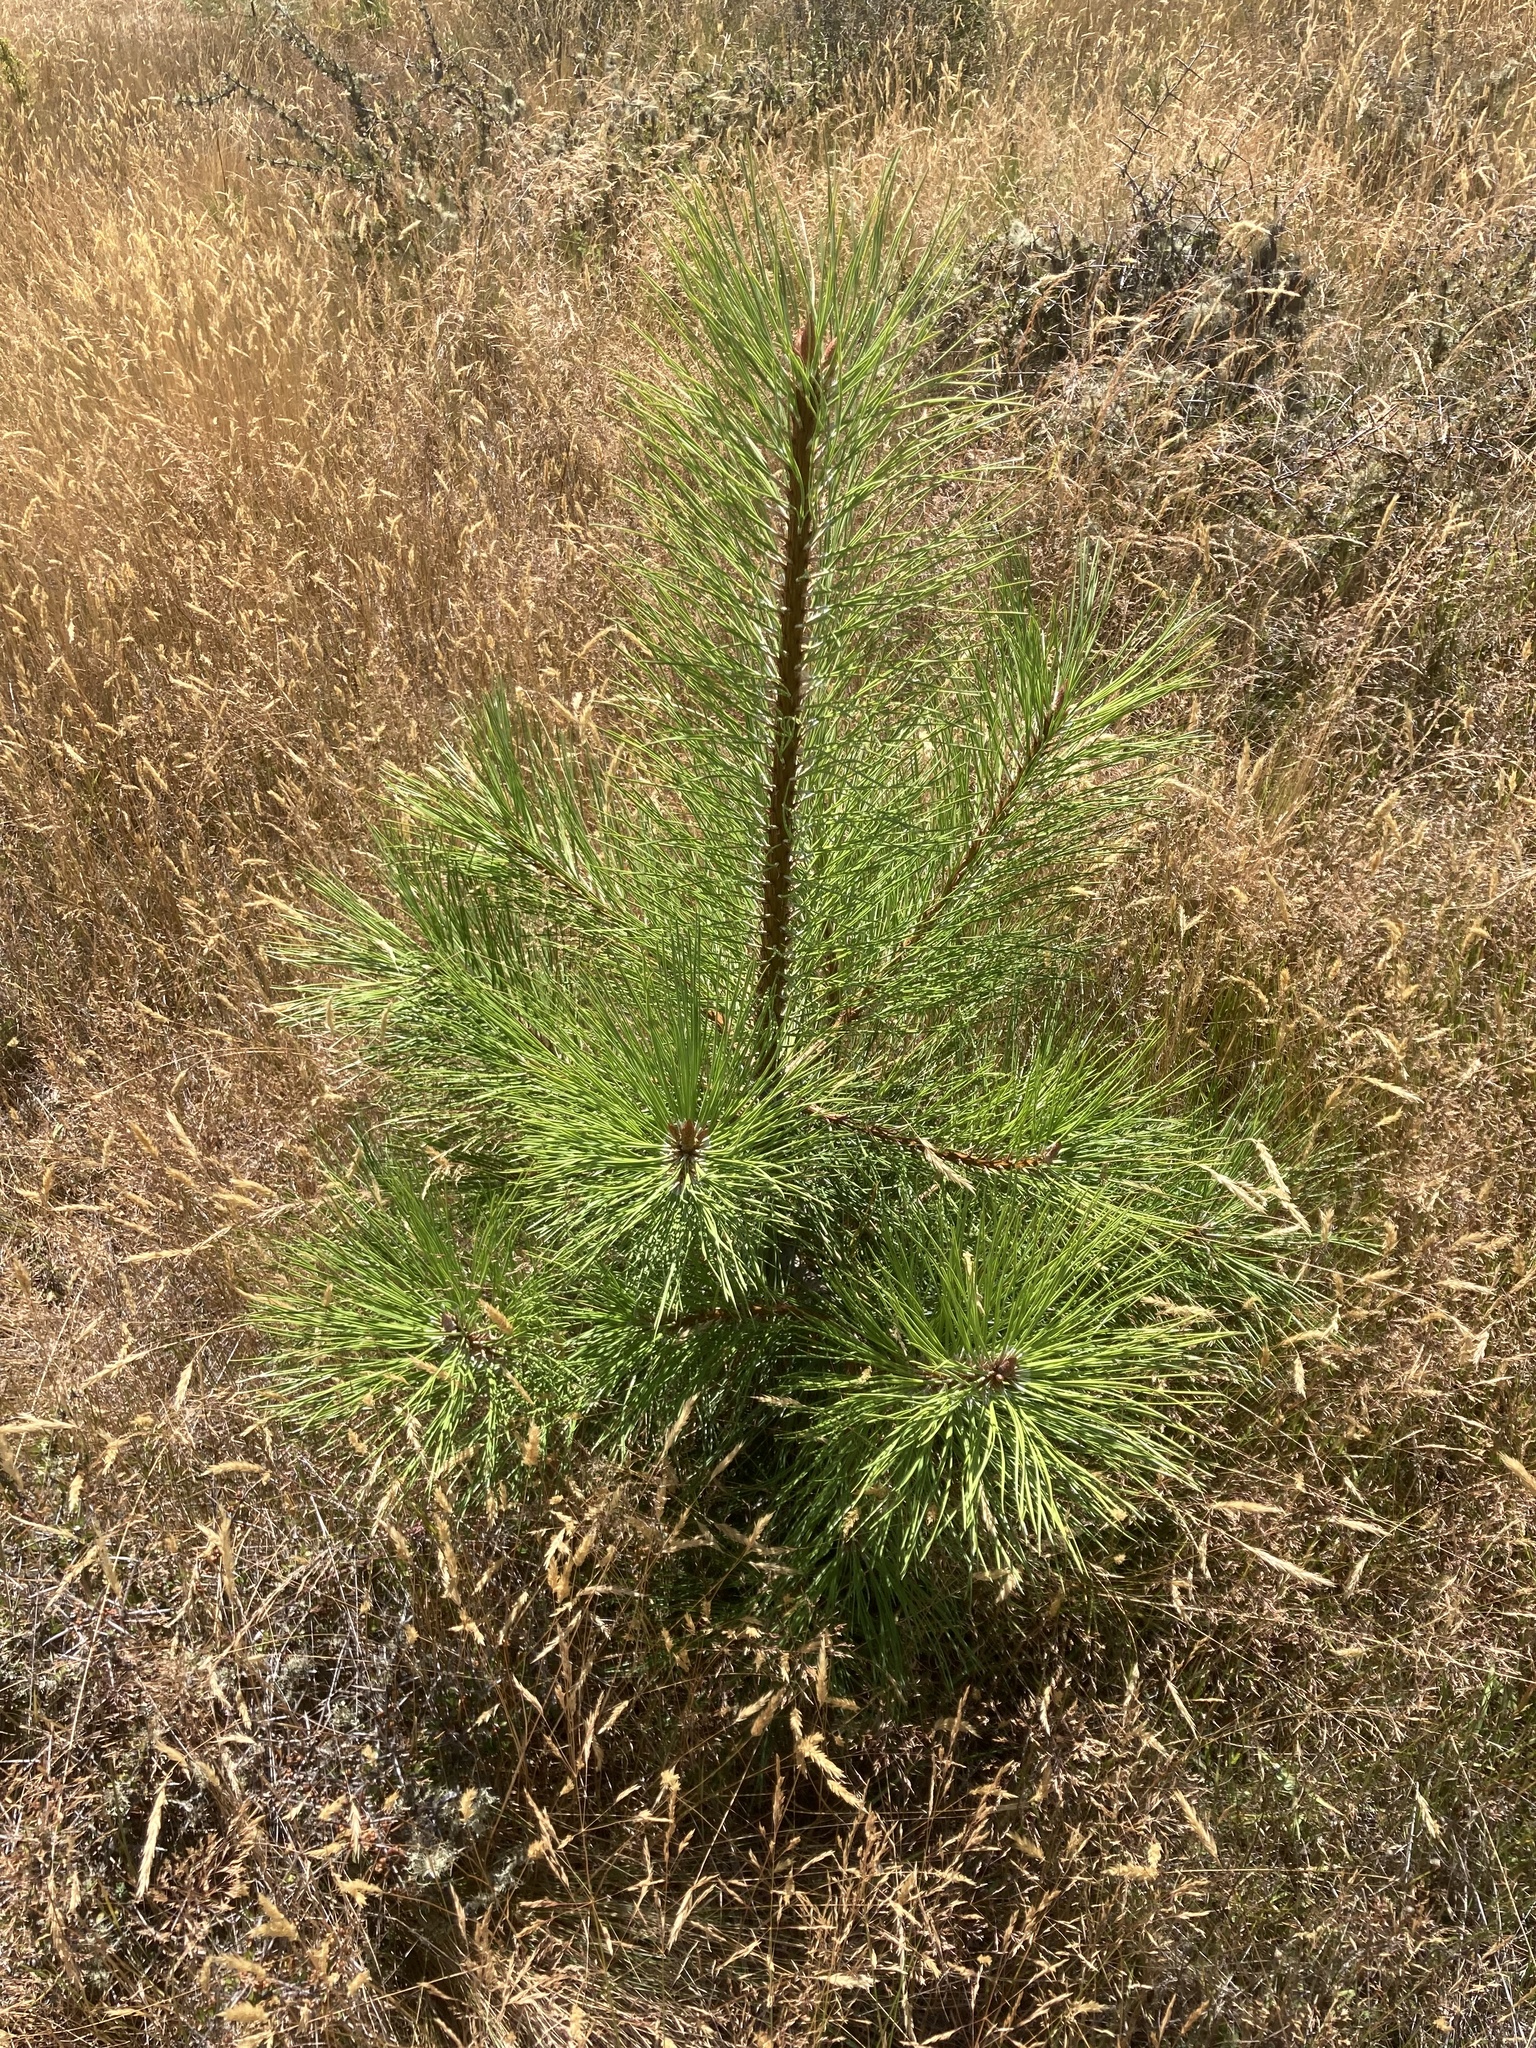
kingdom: Plantae
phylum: Tracheophyta
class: Pinopsida
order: Pinales
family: Pinaceae
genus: Pinus
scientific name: Pinus ponderosa
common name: Western yellow-pine
